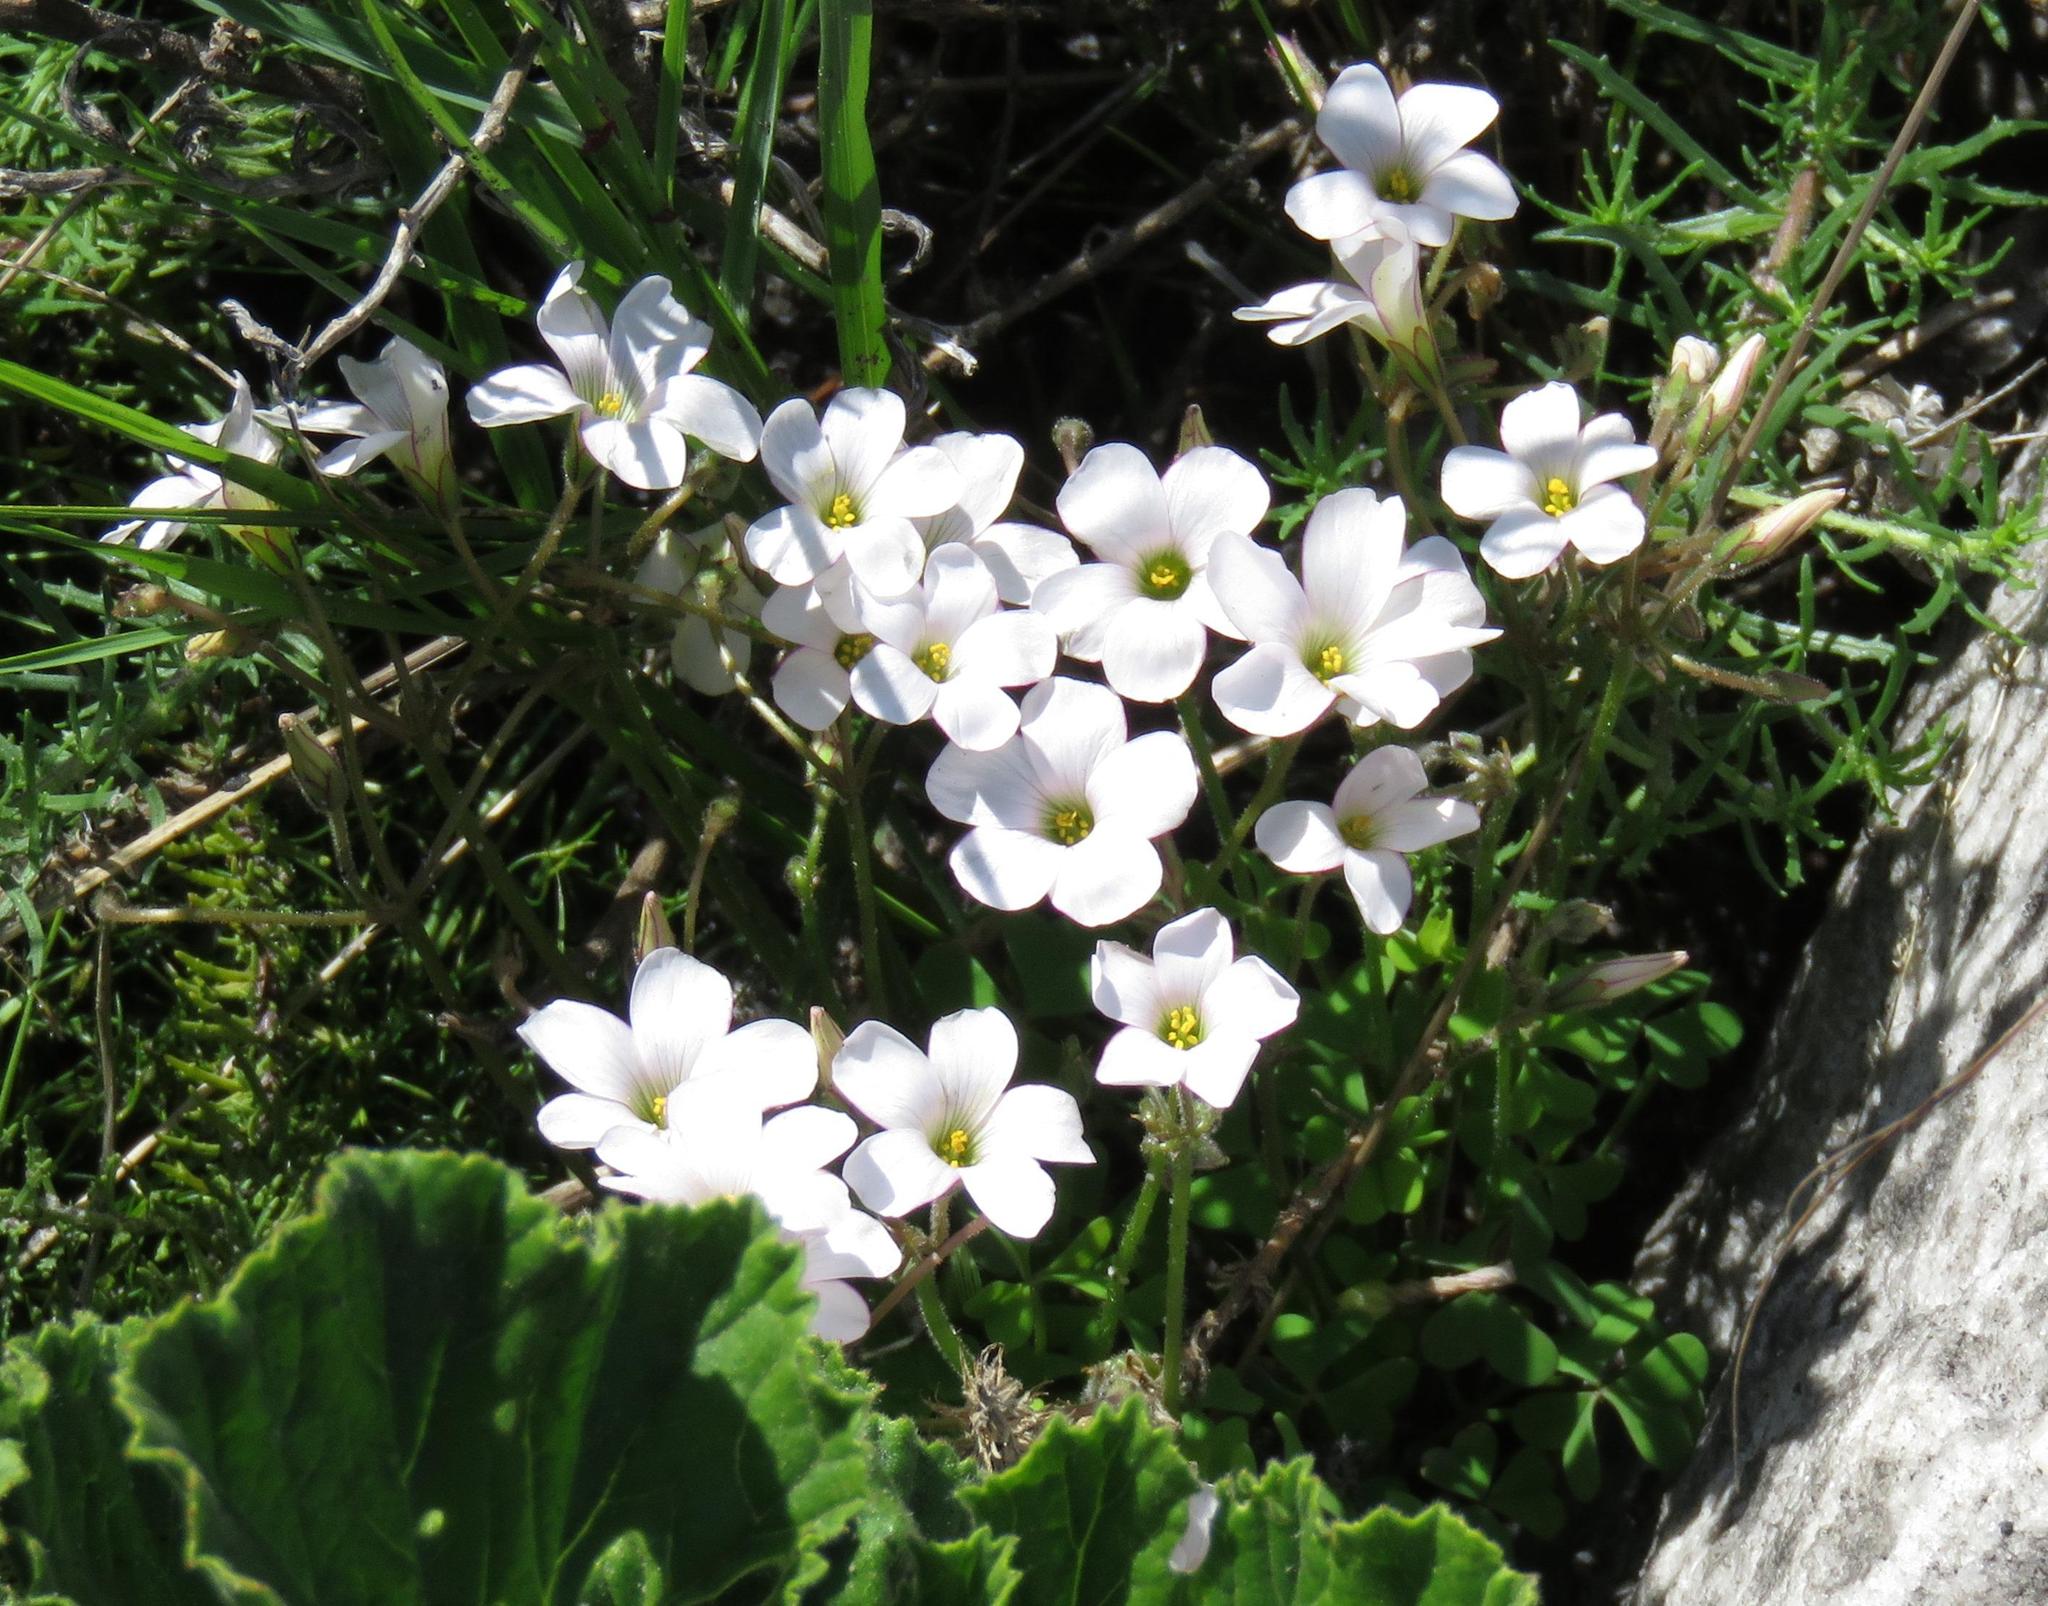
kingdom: Plantae
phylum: Tracheophyta
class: Magnoliopsida
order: Oxalidales
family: Oxalidaceae
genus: Oxalis
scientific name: Oxalis
